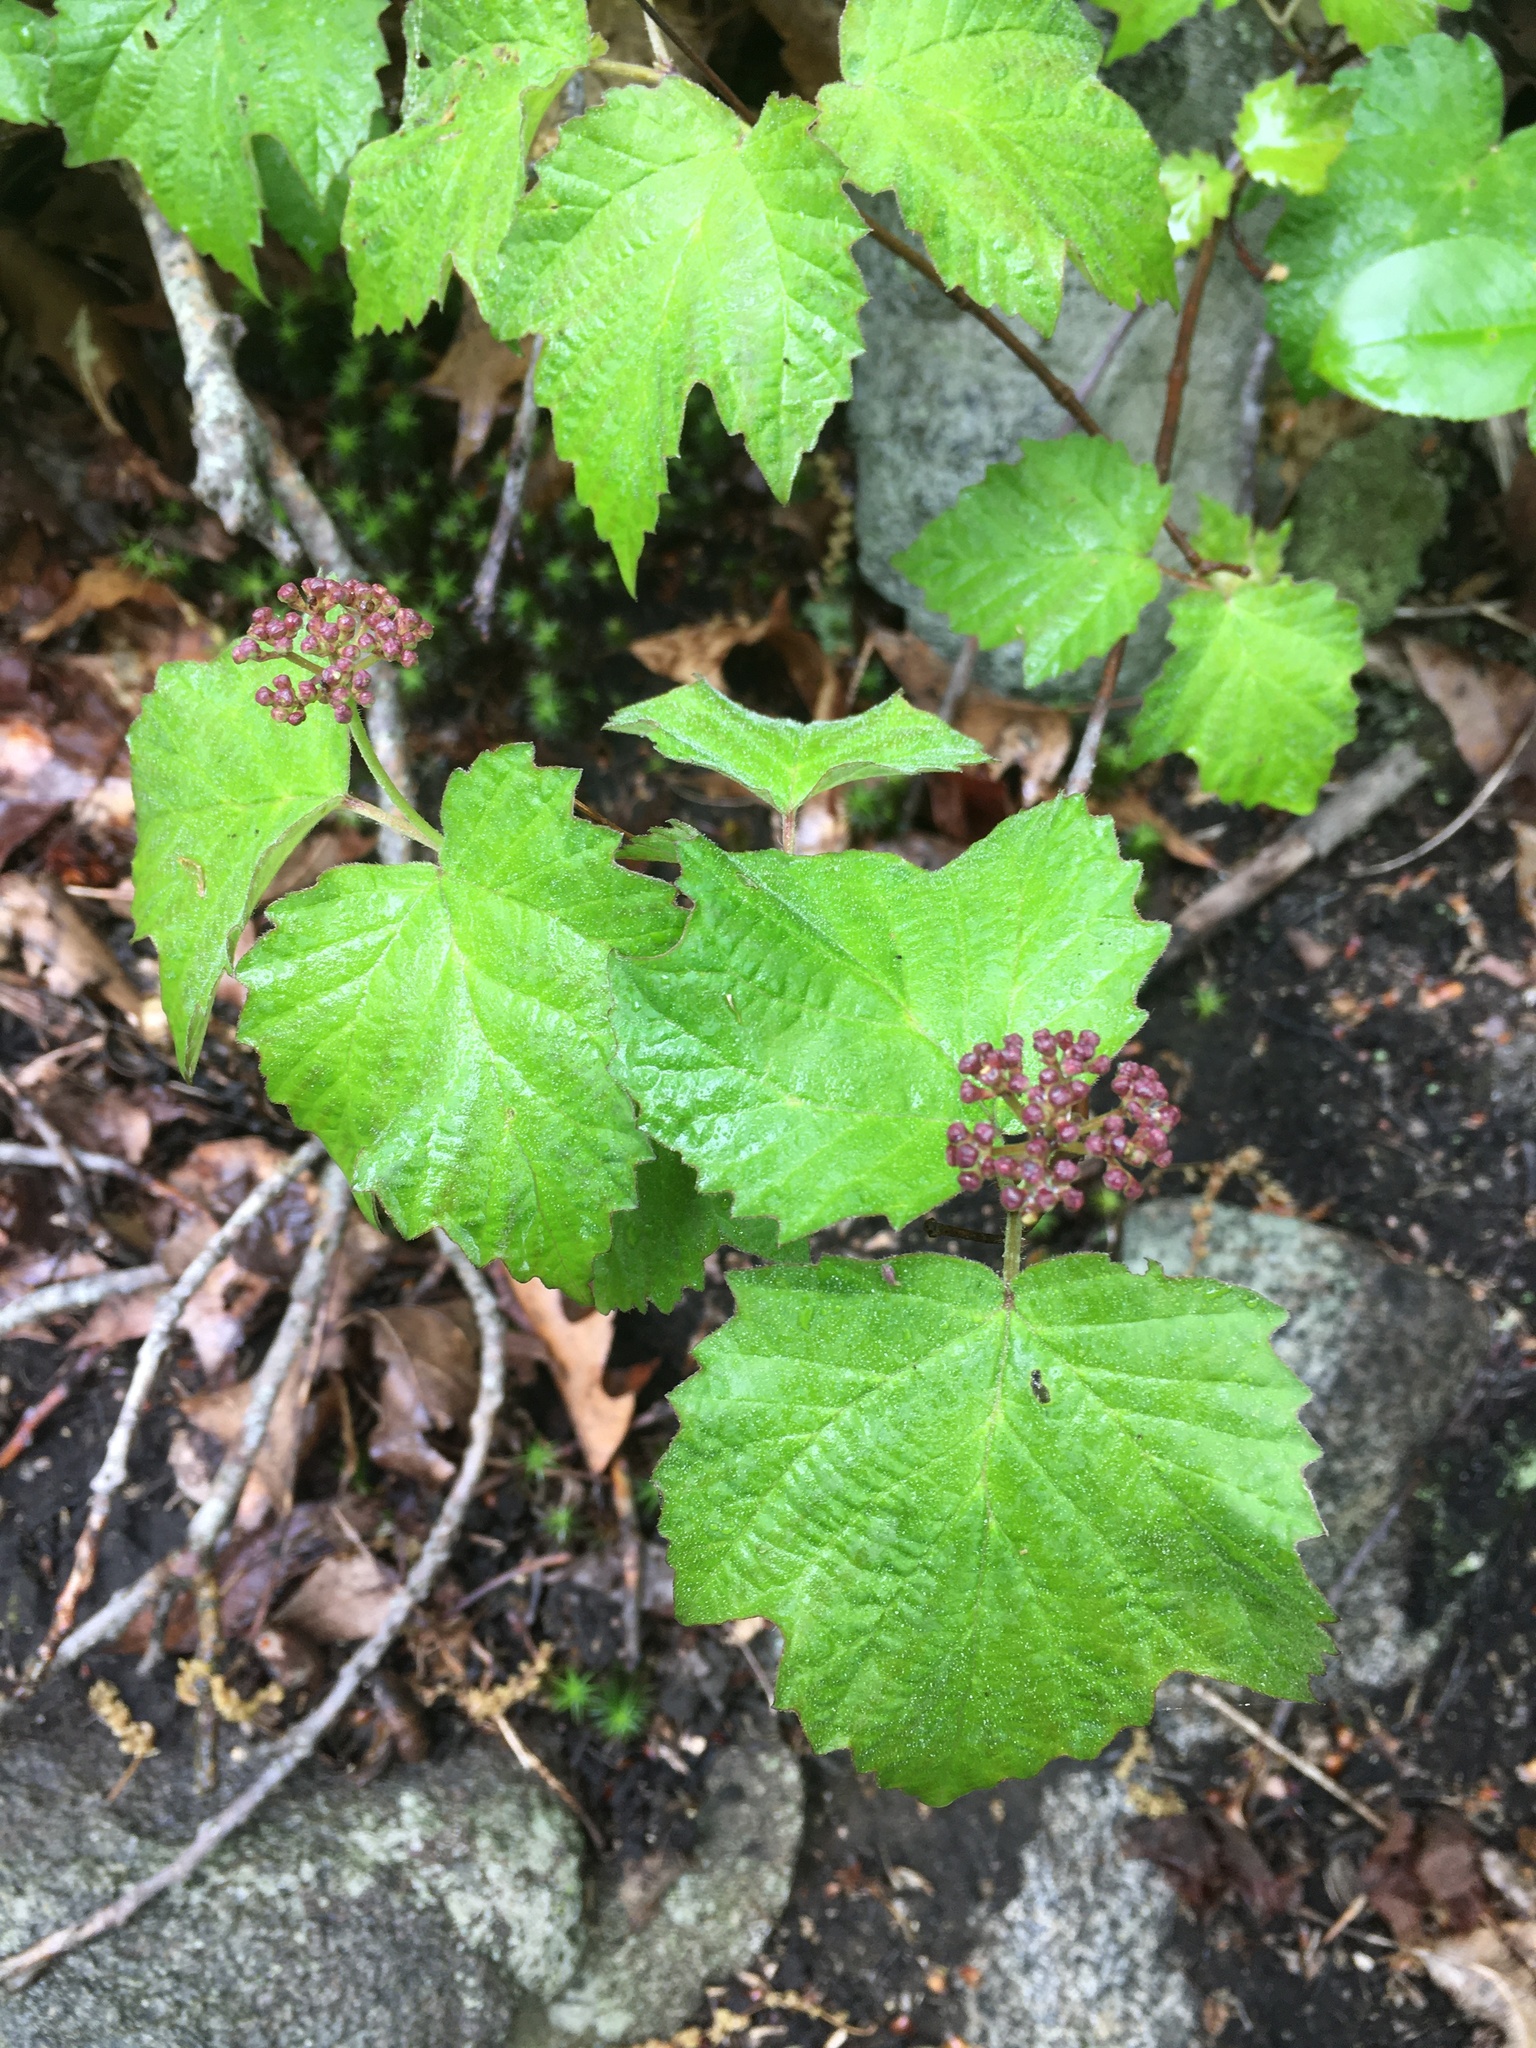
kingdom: Plantae
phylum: Tracheophyta
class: Magnoliopsida
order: Dipsacales
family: Viburnaceae
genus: Viburnum
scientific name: Viburnum acerifolium
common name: Dockmackie
